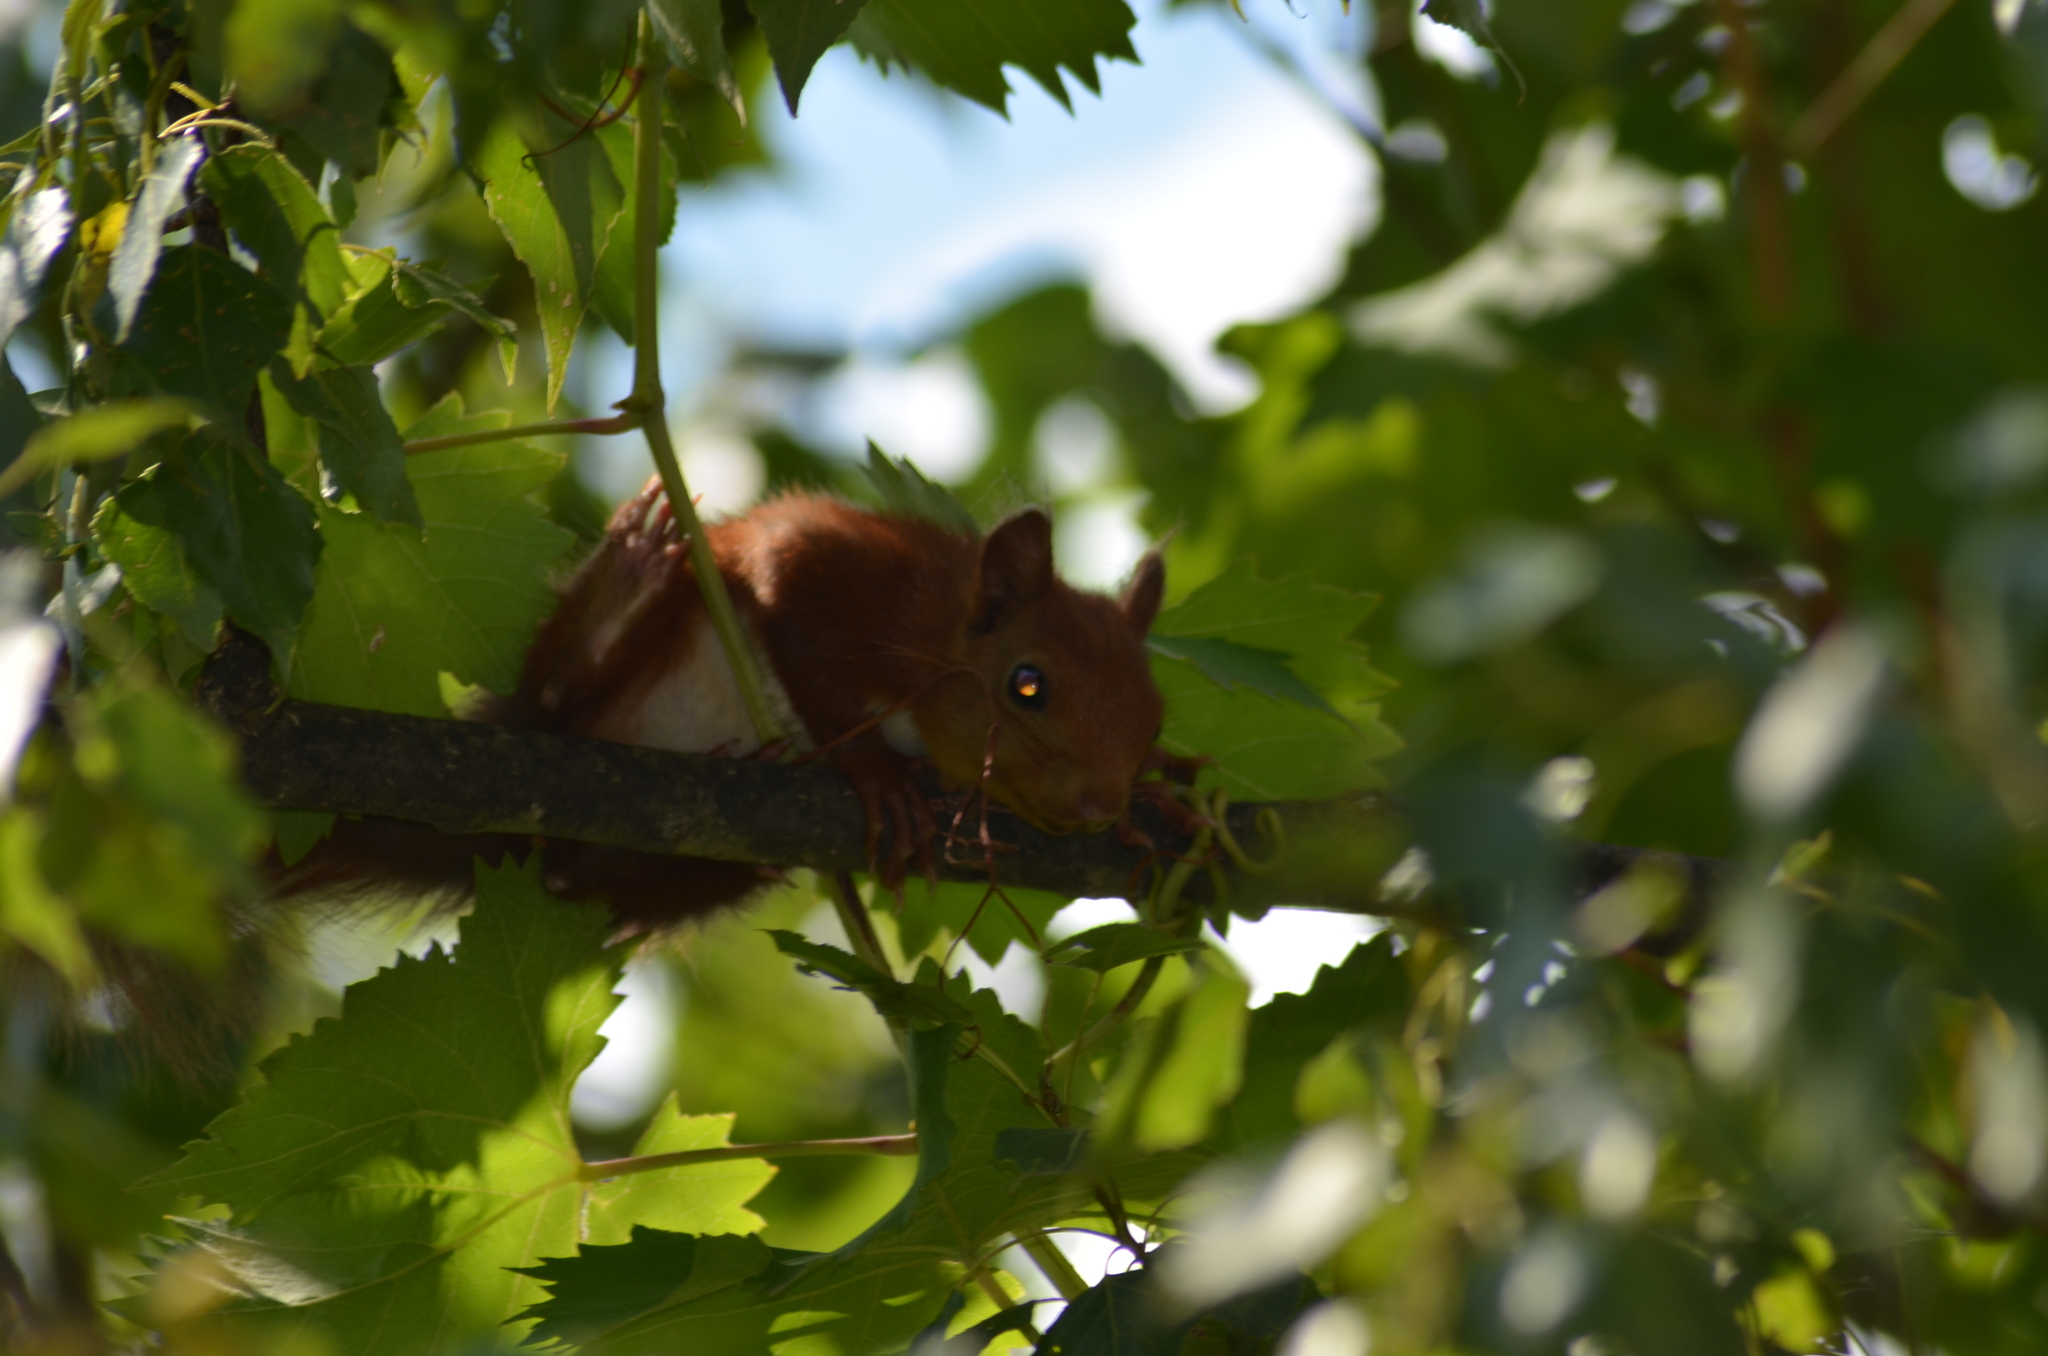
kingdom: Animalia
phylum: Chordata
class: Mammalia
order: Rodentia
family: Sciuridae
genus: Sciurus
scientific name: Sciurus vulgaris
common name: Eurasian red squirrel
